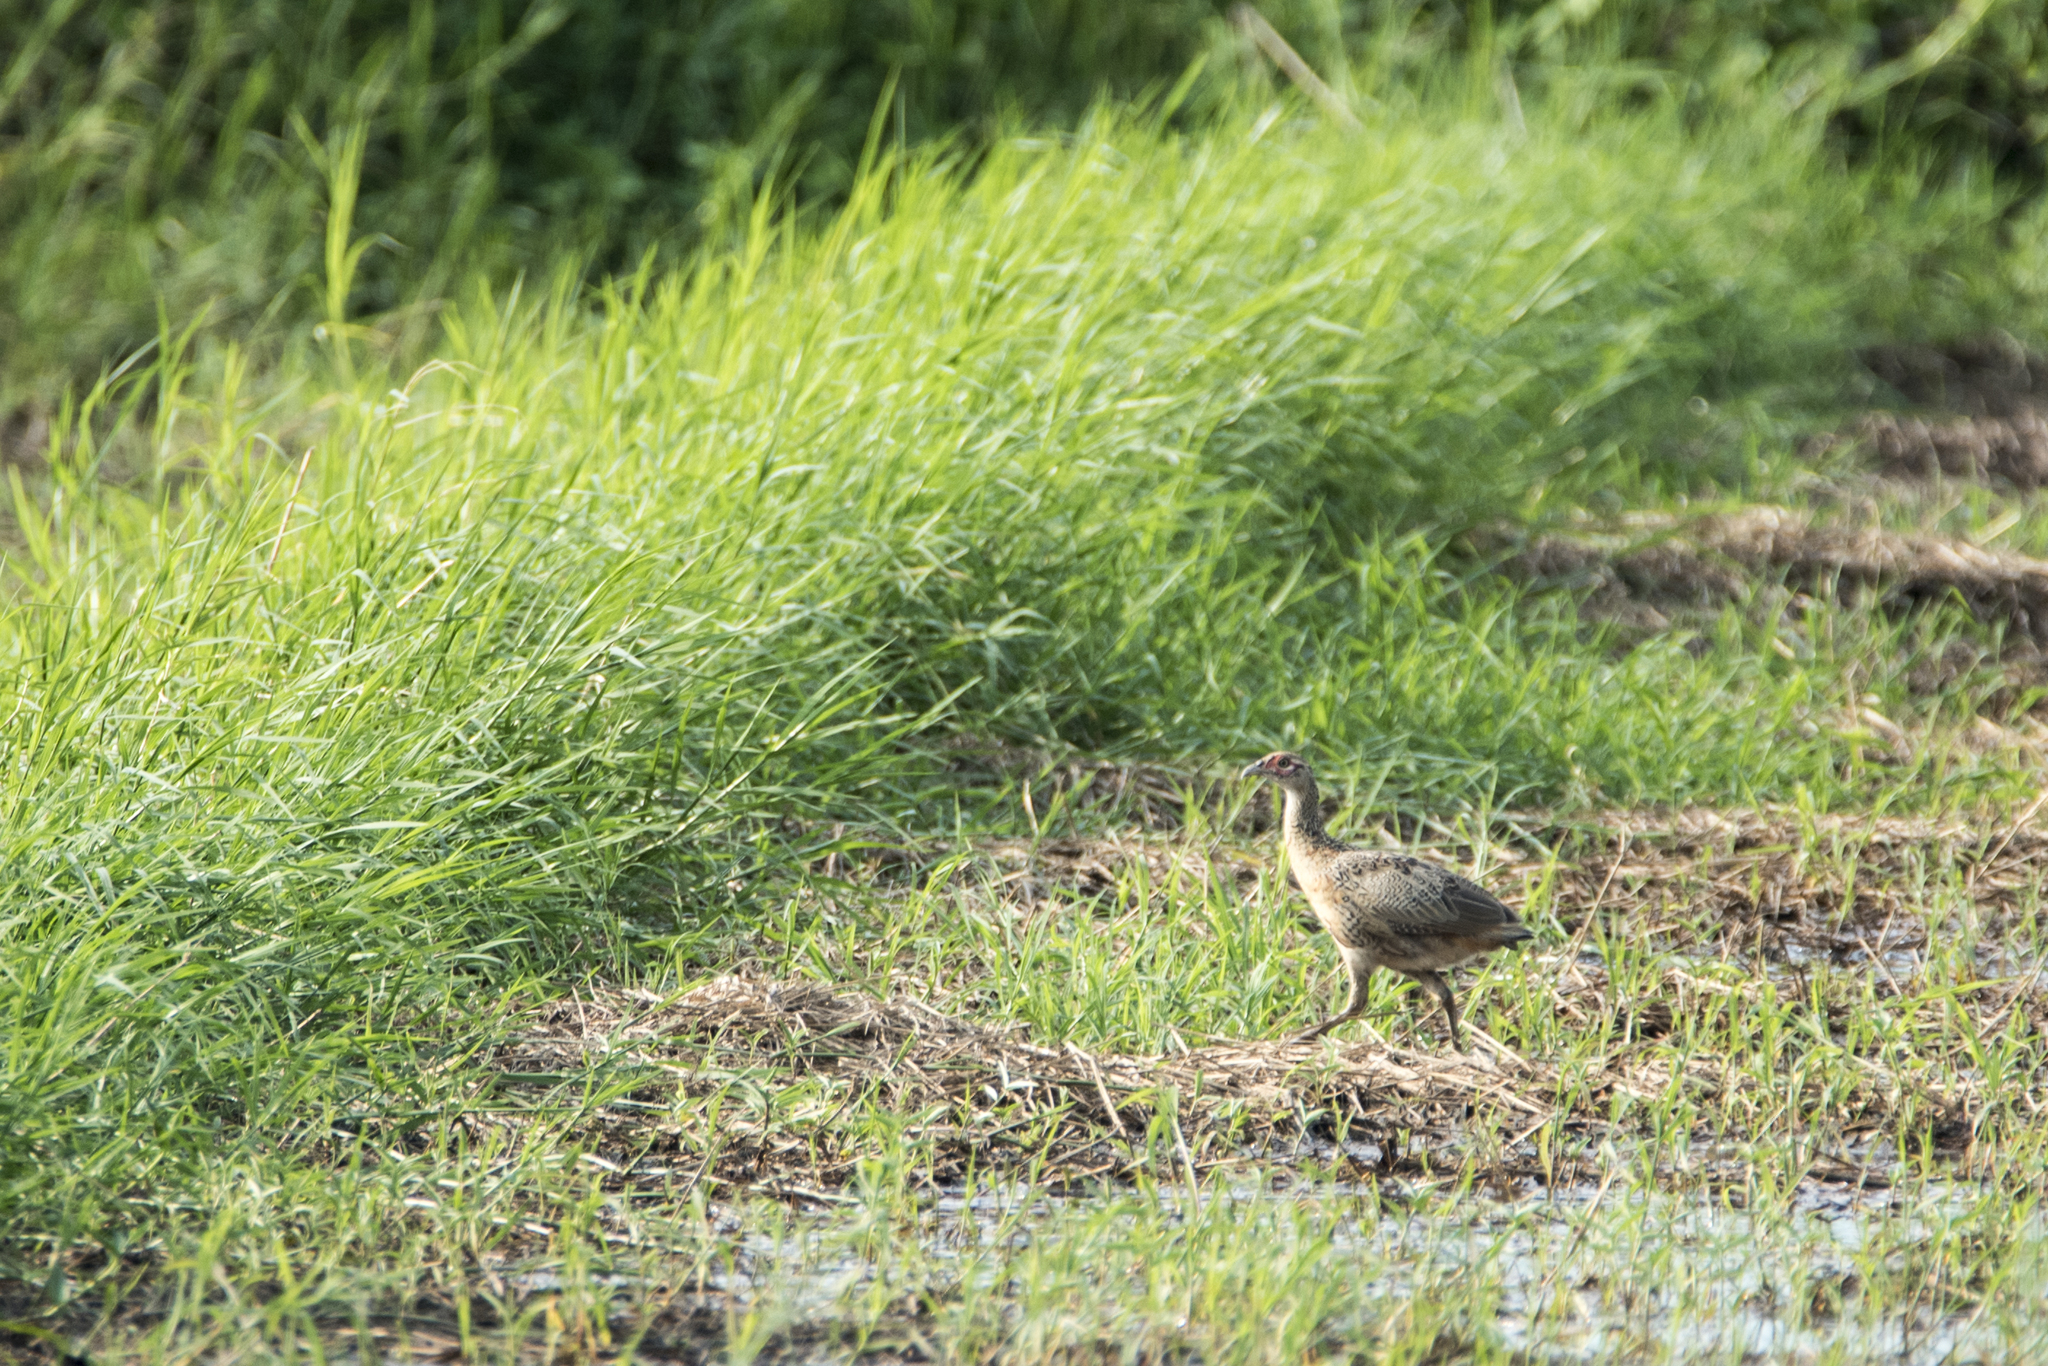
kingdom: Animalia
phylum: Chordata
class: Aves
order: Galliformes
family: Phasianidae
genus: Phasianus
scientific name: Phasianus colchicus
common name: Common pheasant
